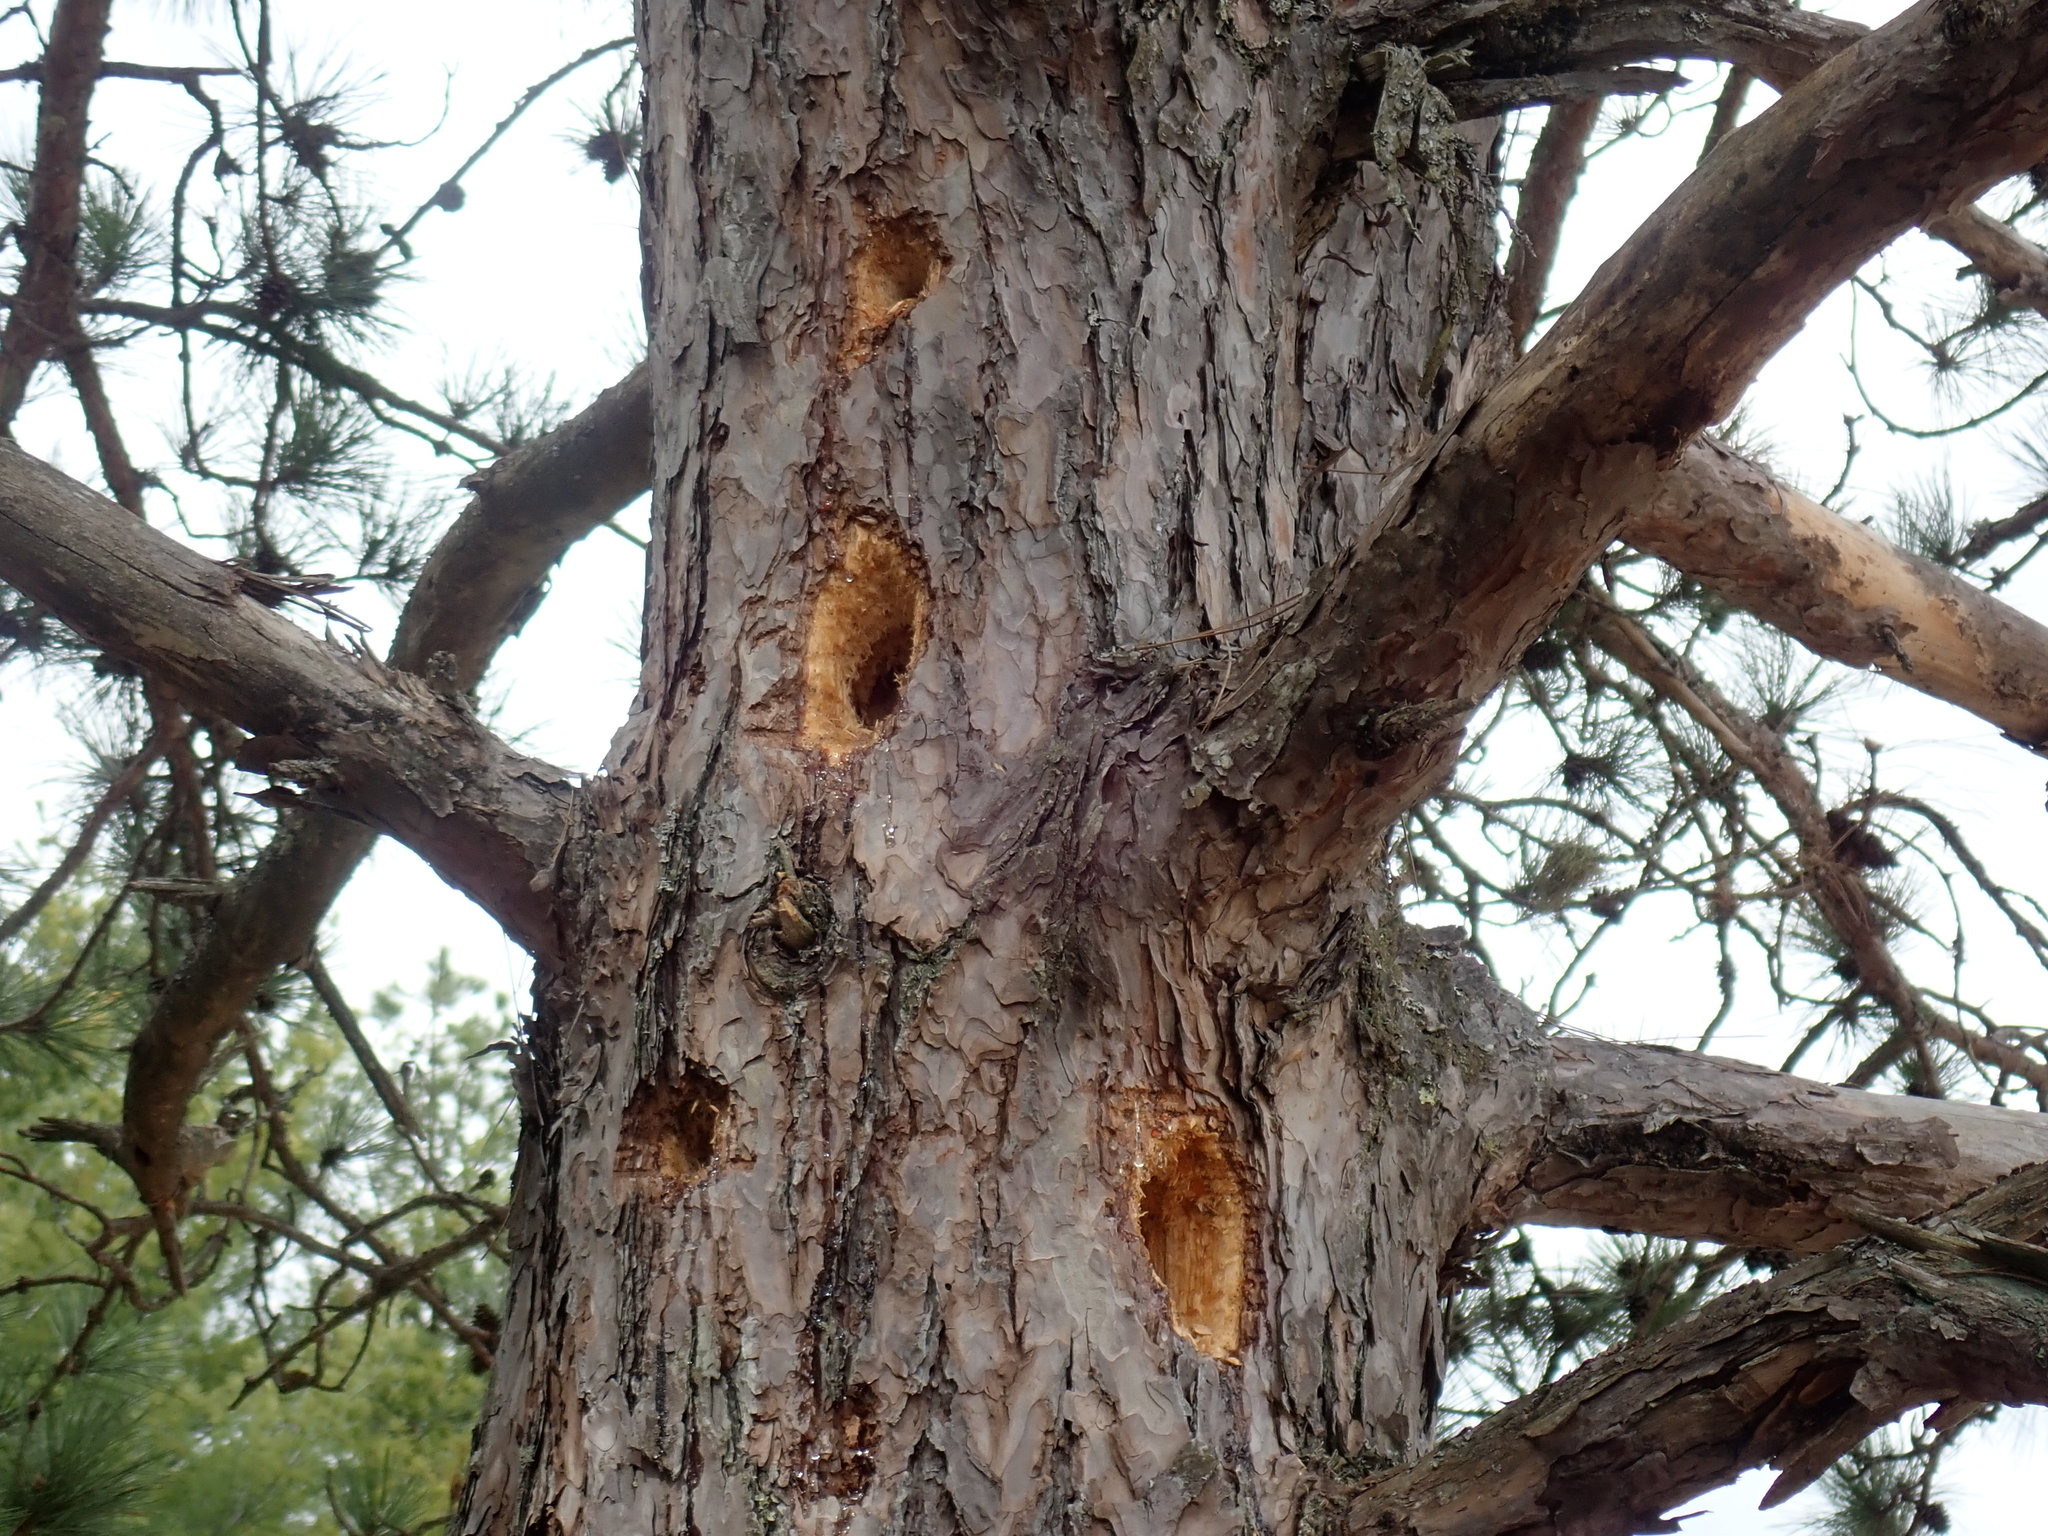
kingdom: Animalia
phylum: Chordata
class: Aves
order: Piciformes
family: Picidae
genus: Dryocopus
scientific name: Dryocopus pileatus
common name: Pileated woodpecker
